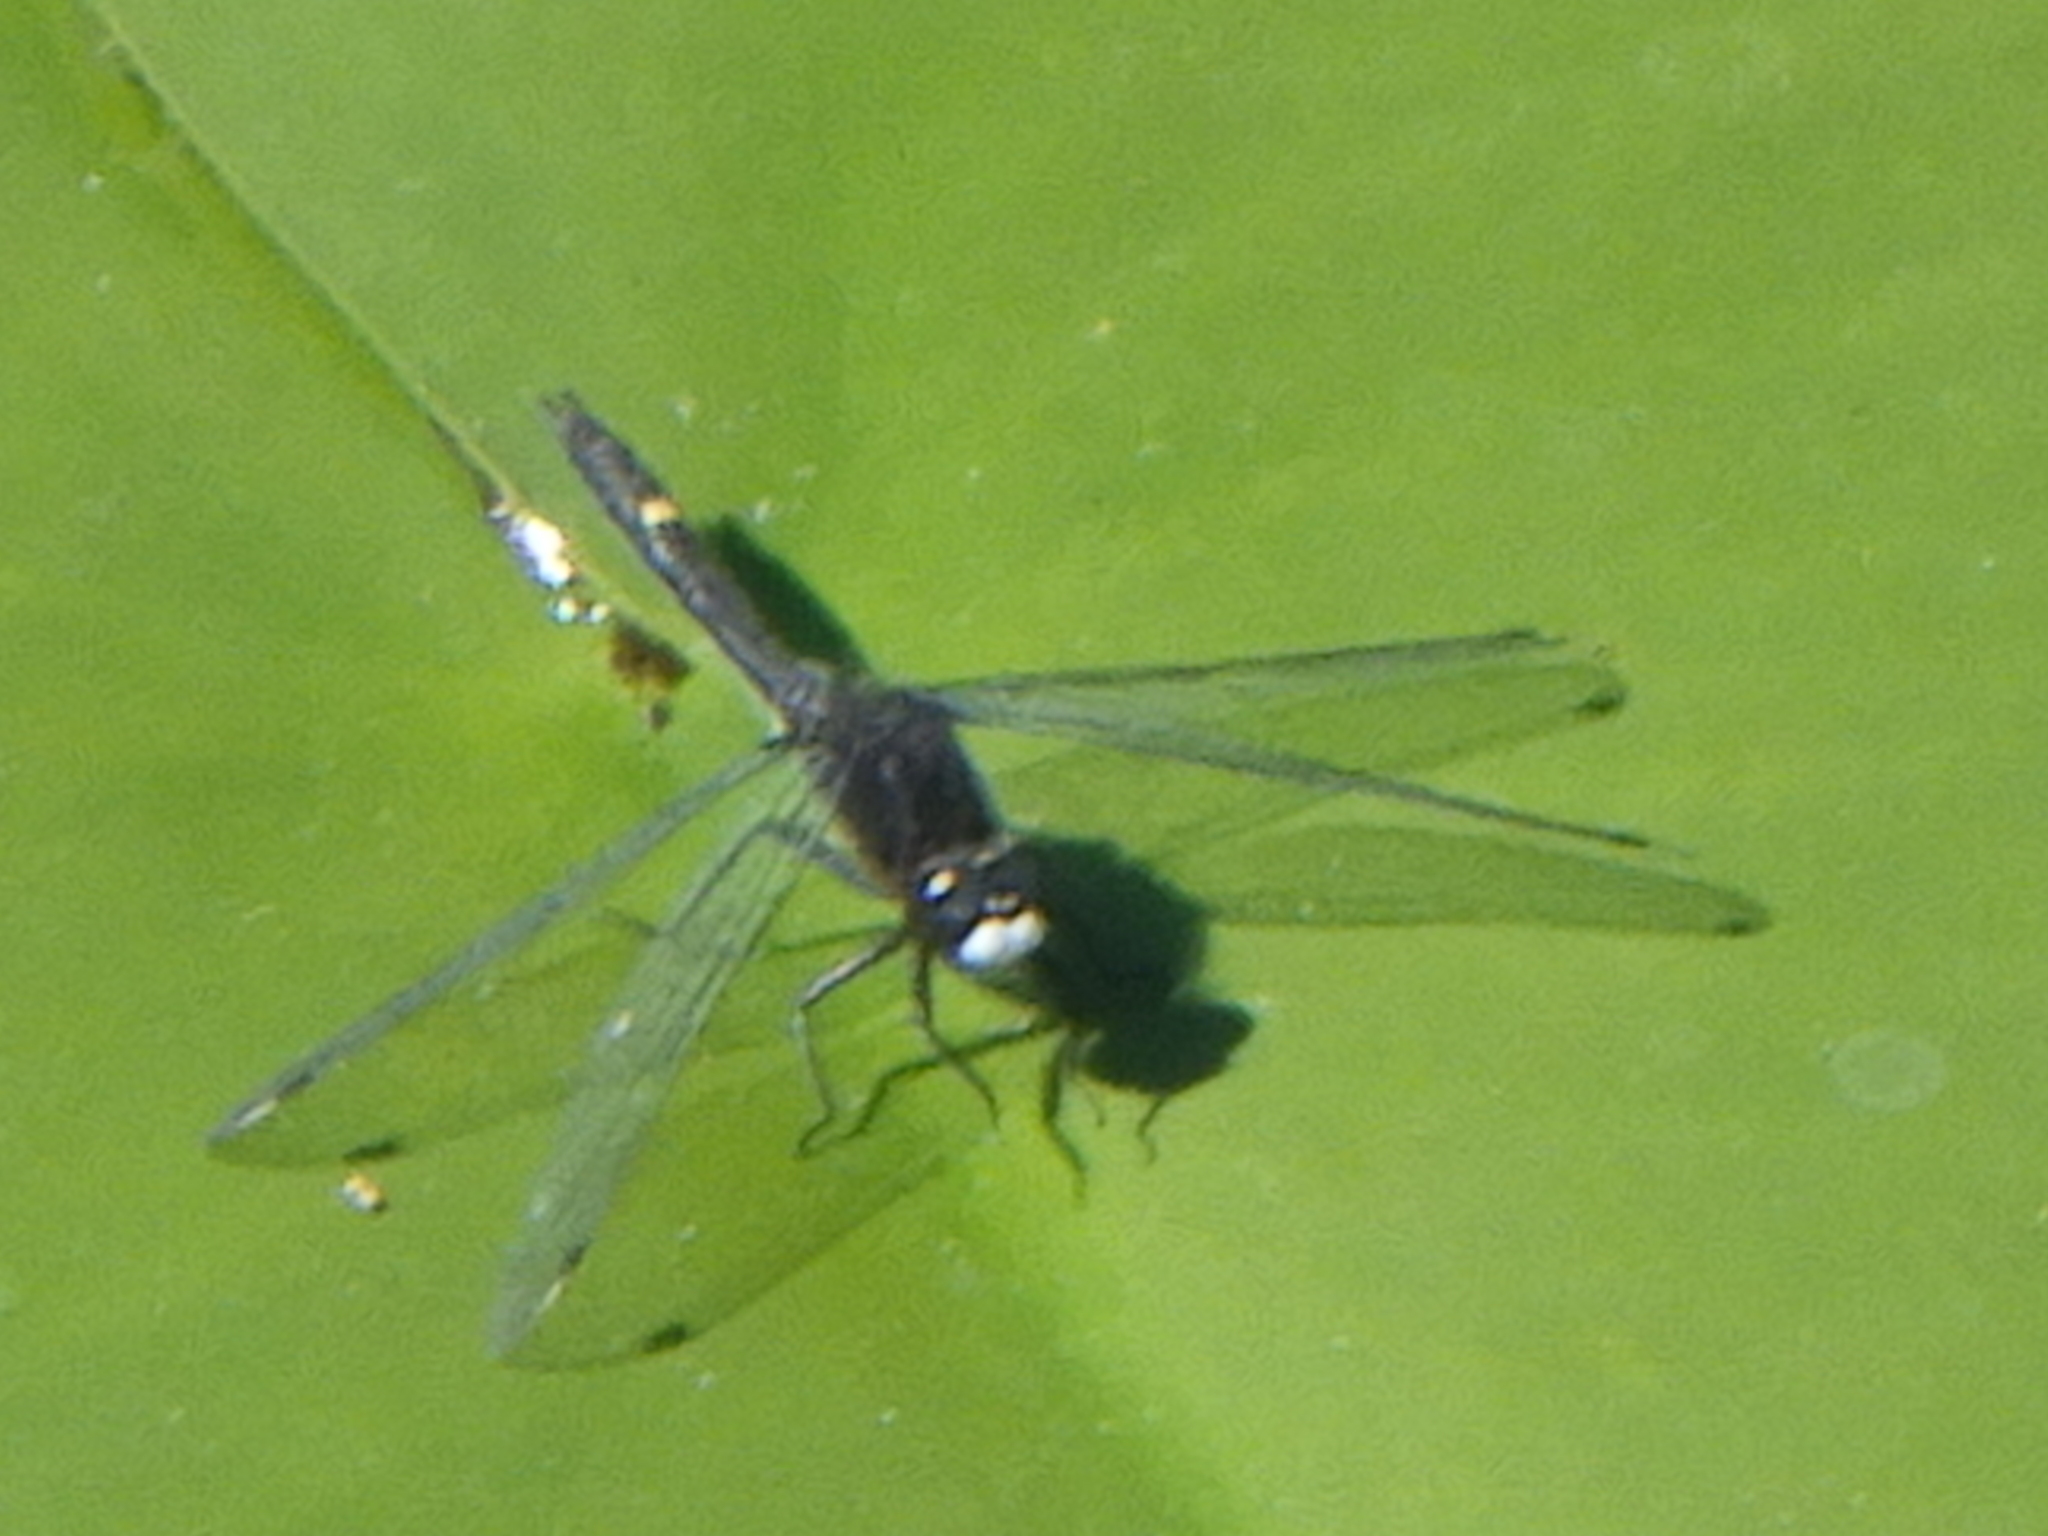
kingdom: Animalia
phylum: Arthropoda
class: Insecta
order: Odonata
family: Libellulidae
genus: Leucorrhinia
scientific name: Leucorrhinia intacta
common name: Dot-tailed whiteface
